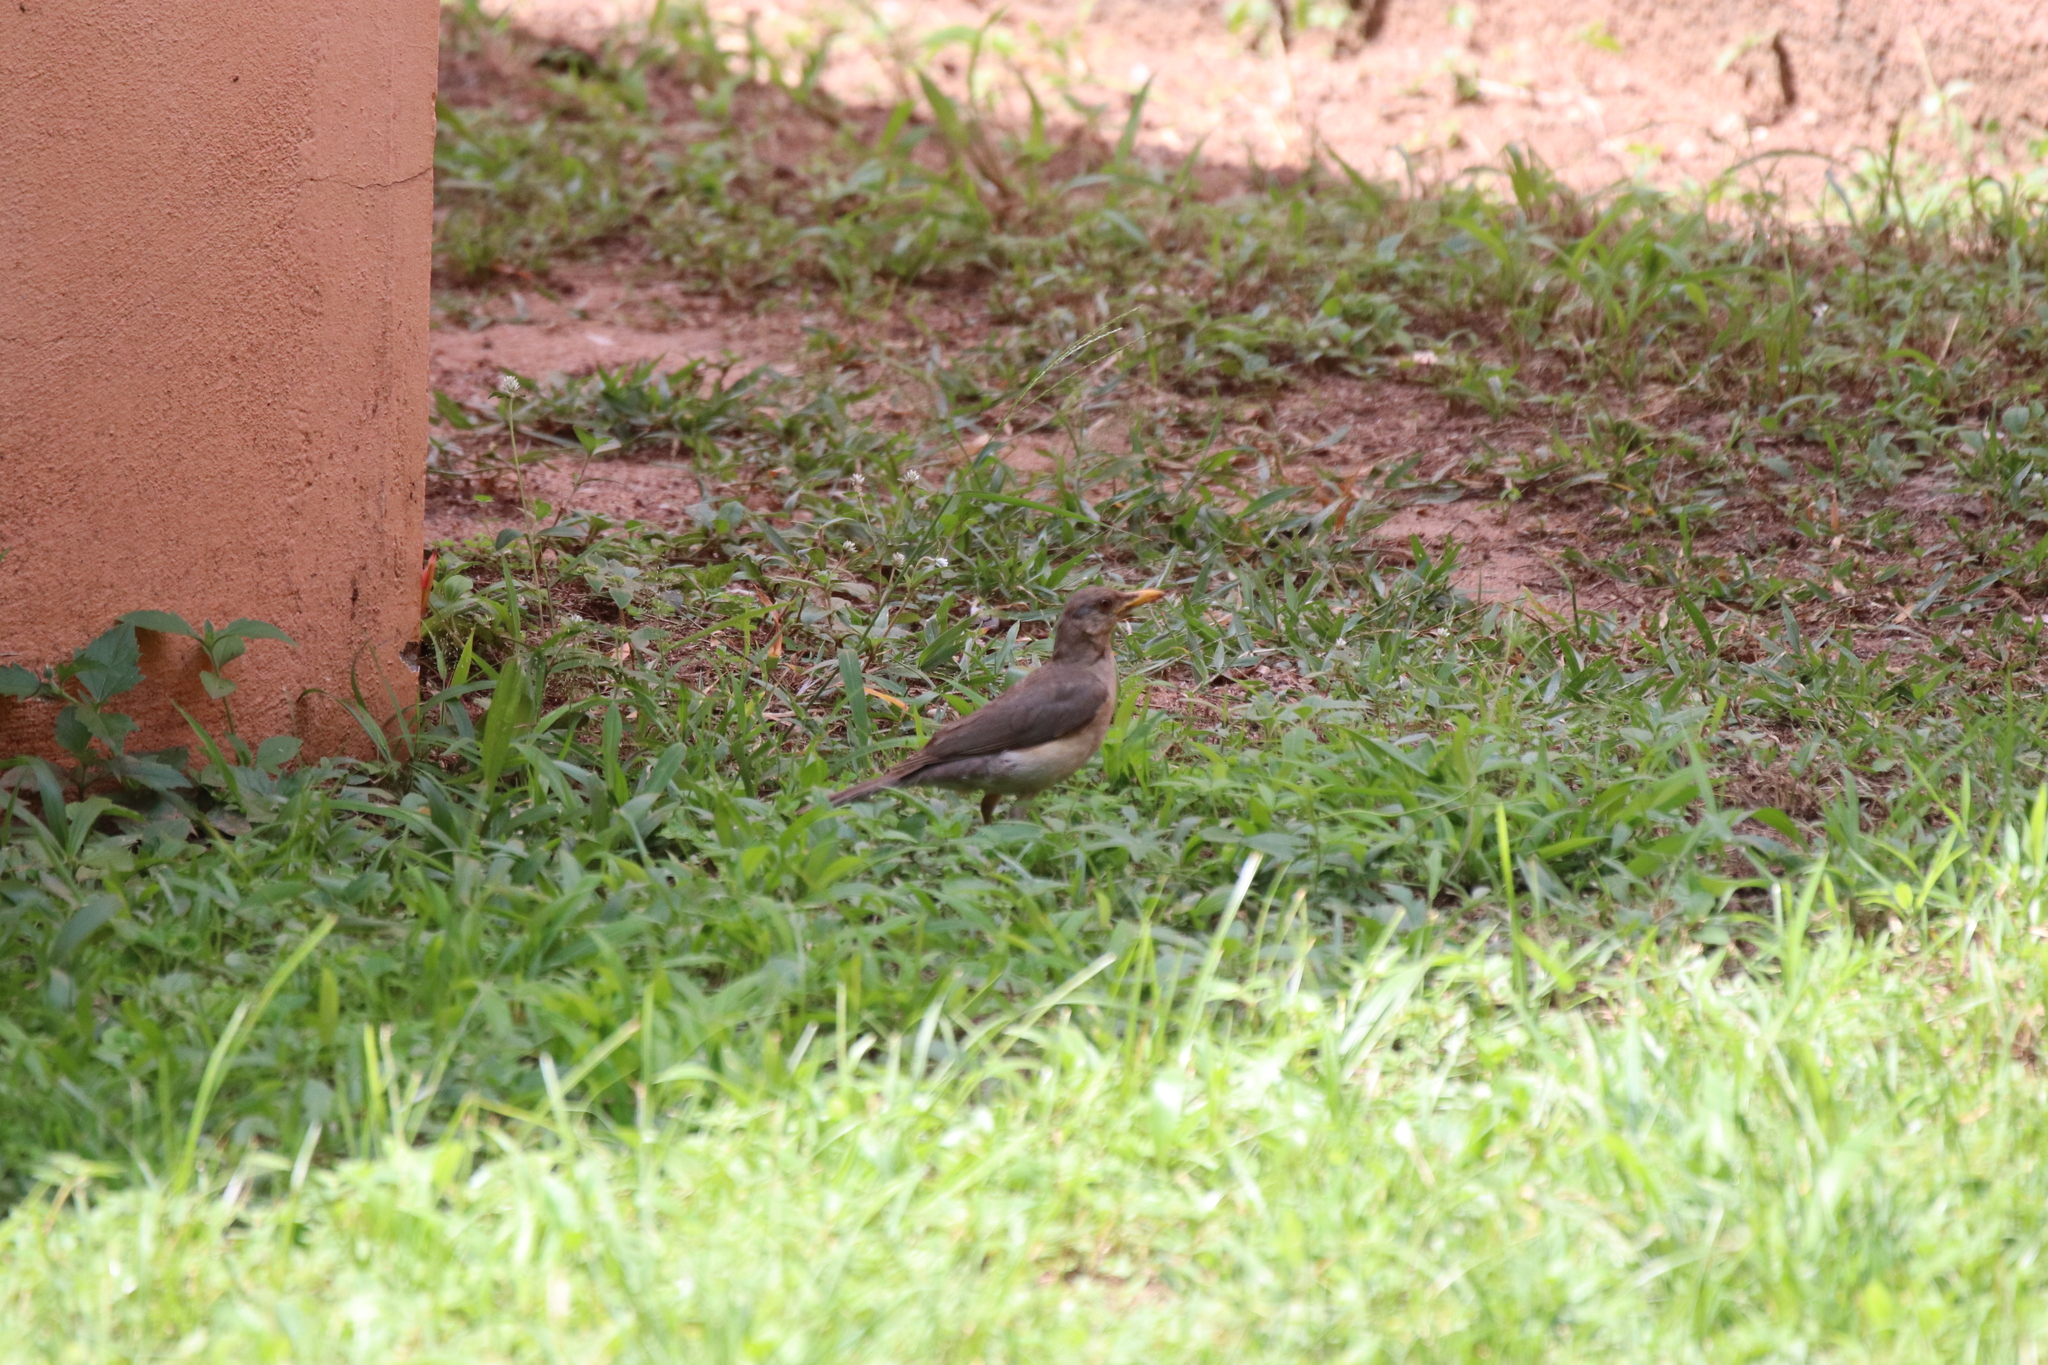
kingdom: Animalia
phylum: Chordata
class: Aves
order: Passeriformes
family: Turdidae
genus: Turdus
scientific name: Turdus pelios
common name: African thrush
